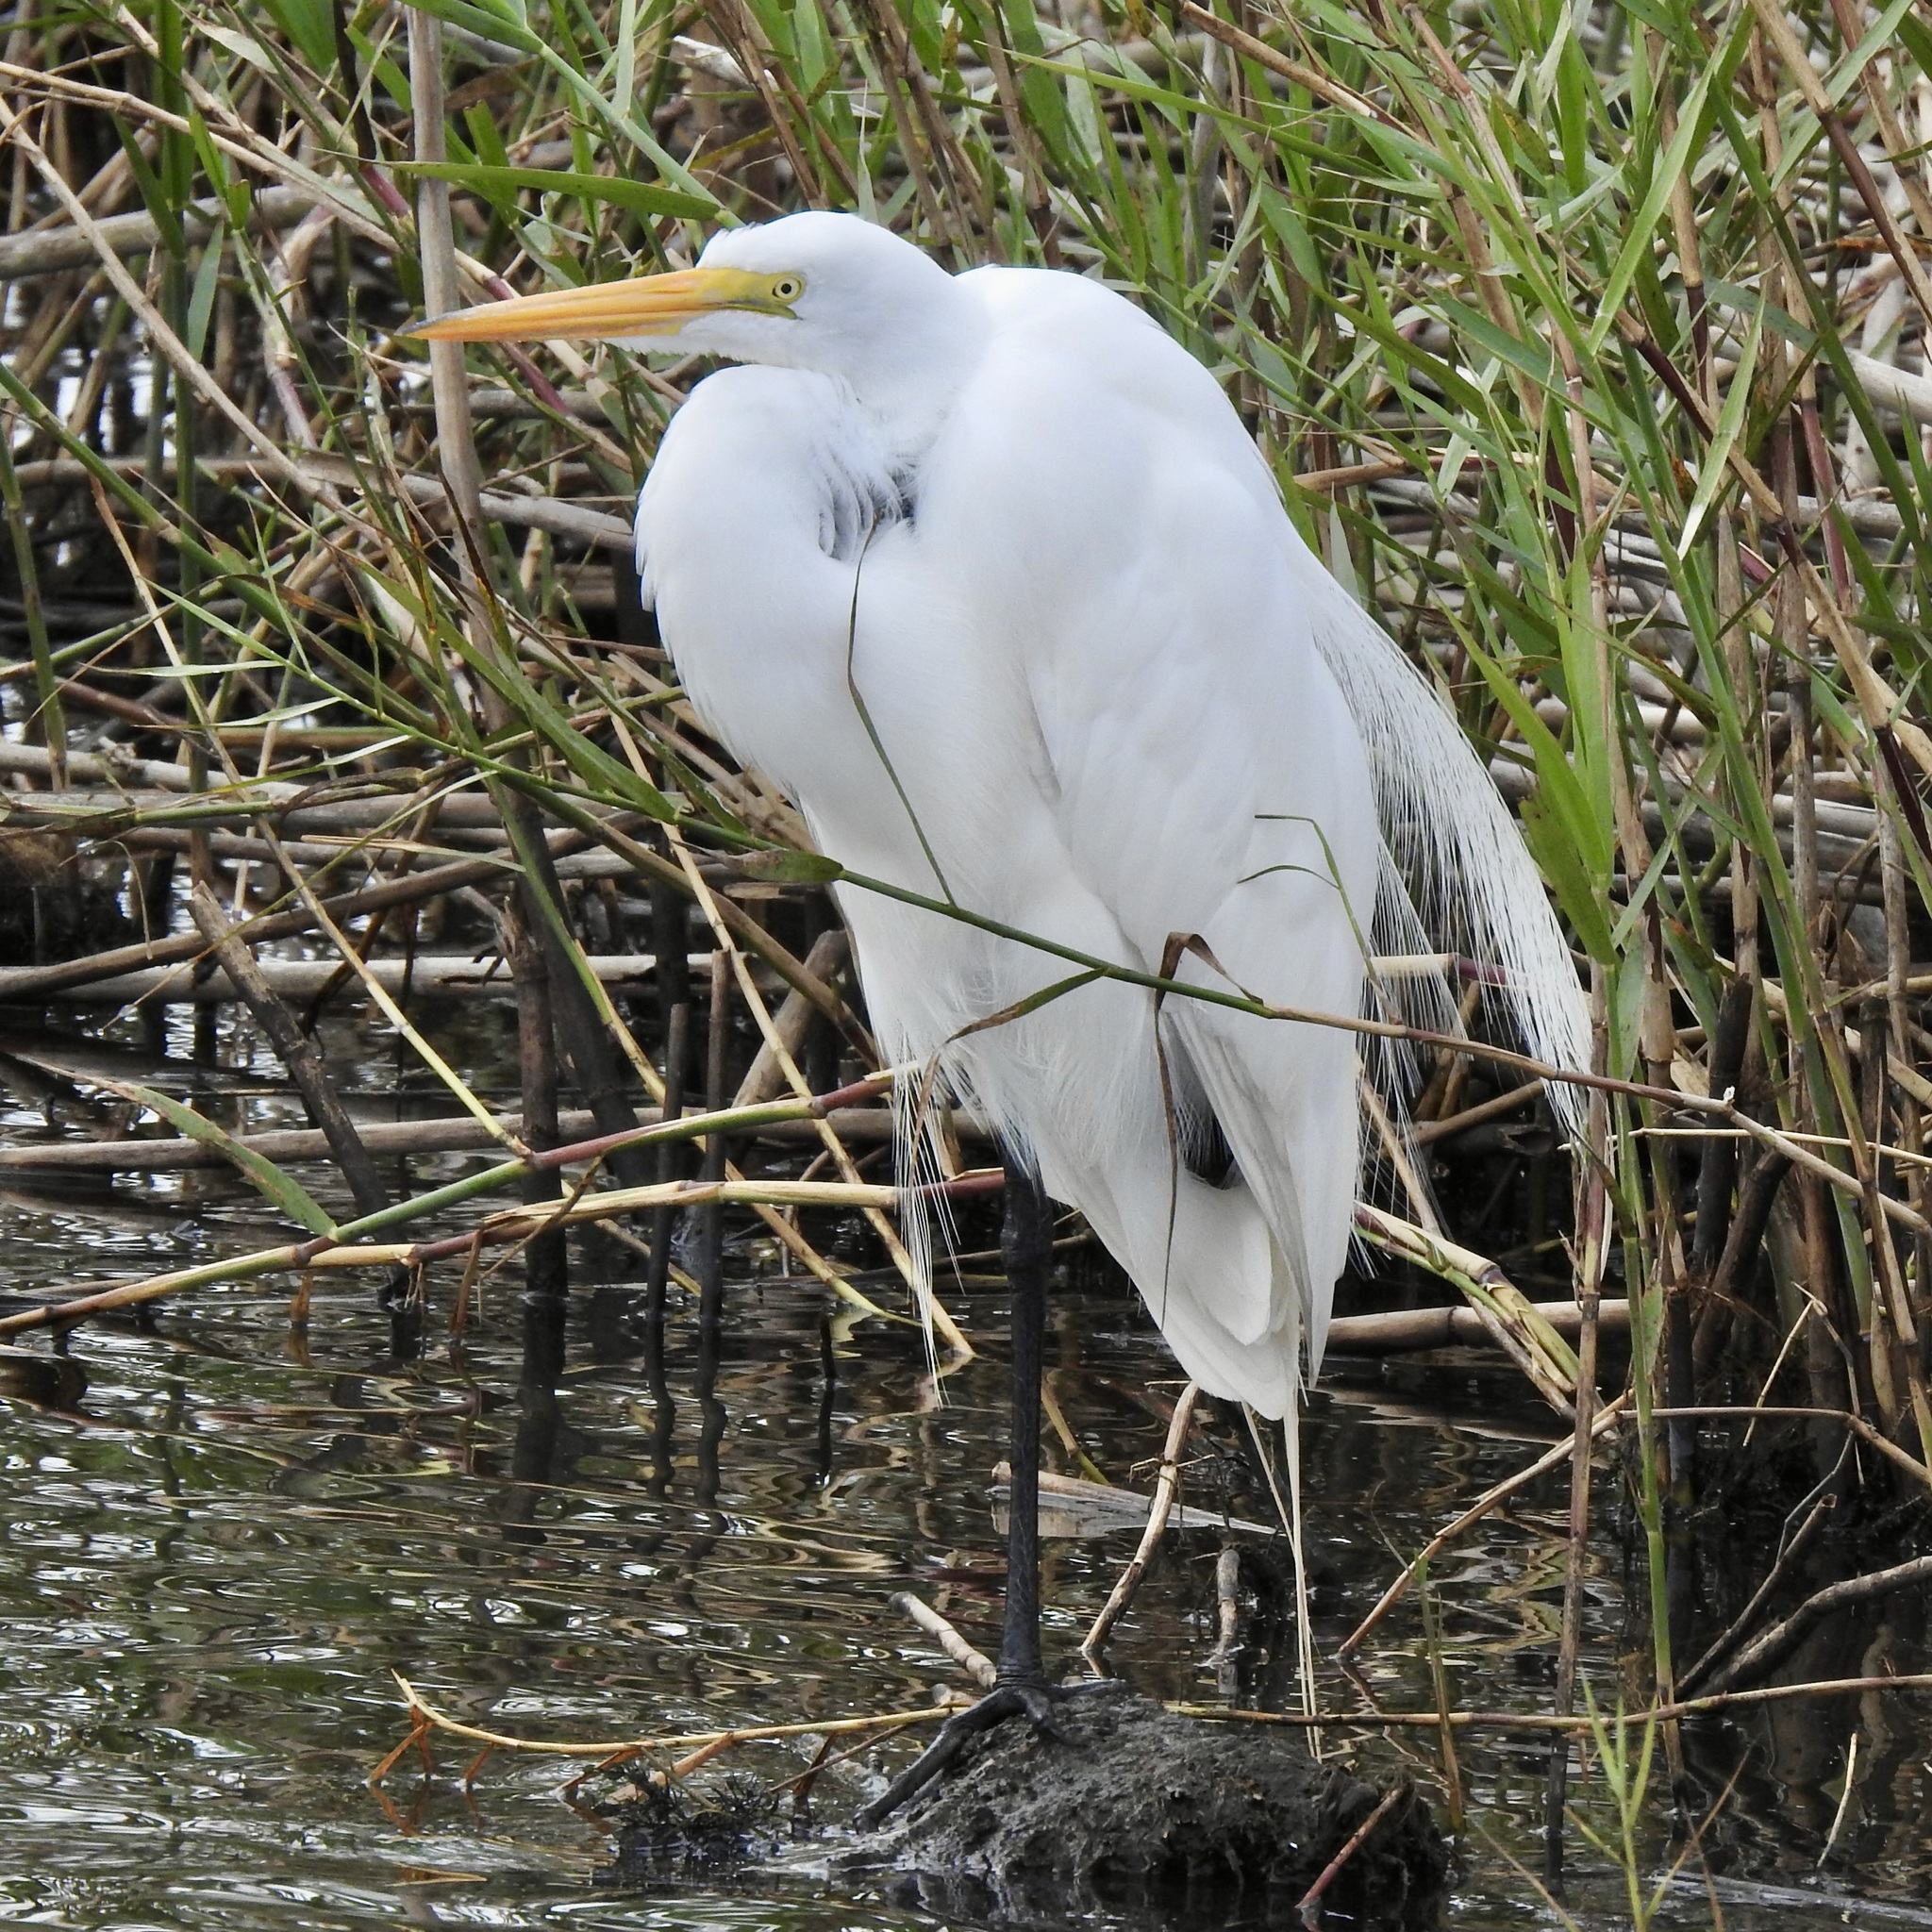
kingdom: Animalia
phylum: Chordata
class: Aves
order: Pelecaniformes
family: Ardeidae
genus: Ardea
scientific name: Ardea alba
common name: Great egret
